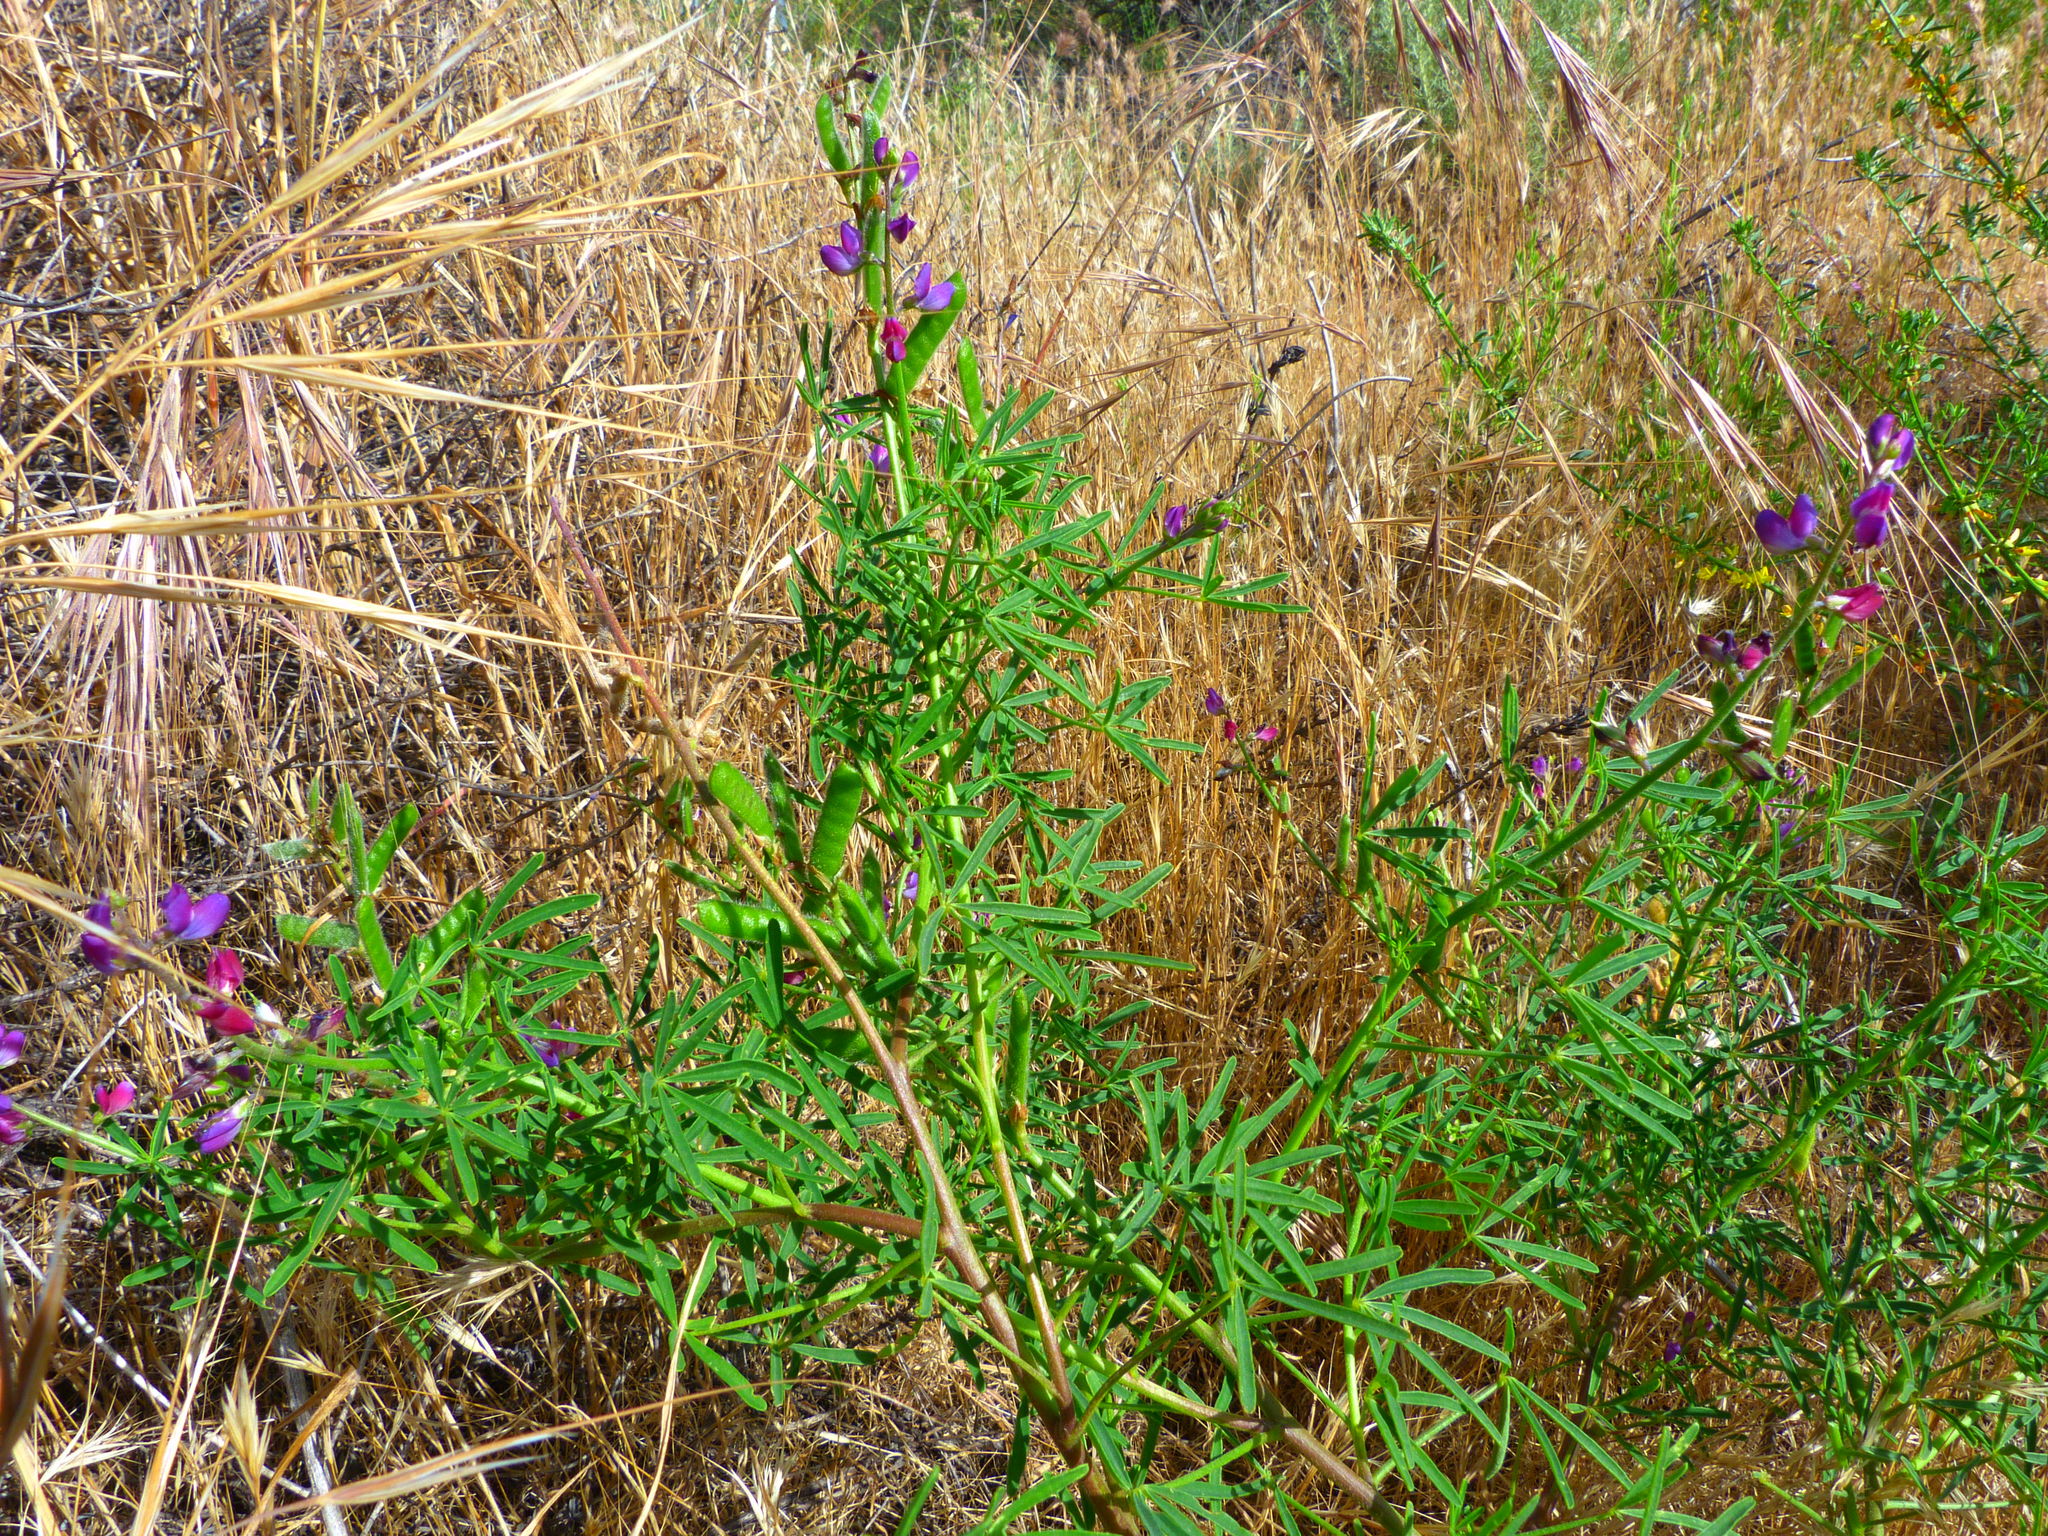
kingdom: Plantae
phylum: Tracheophyta
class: Magnoliopsida
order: Fabales
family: Fabaceae
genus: Lupinus
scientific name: Lupinus truncatus
